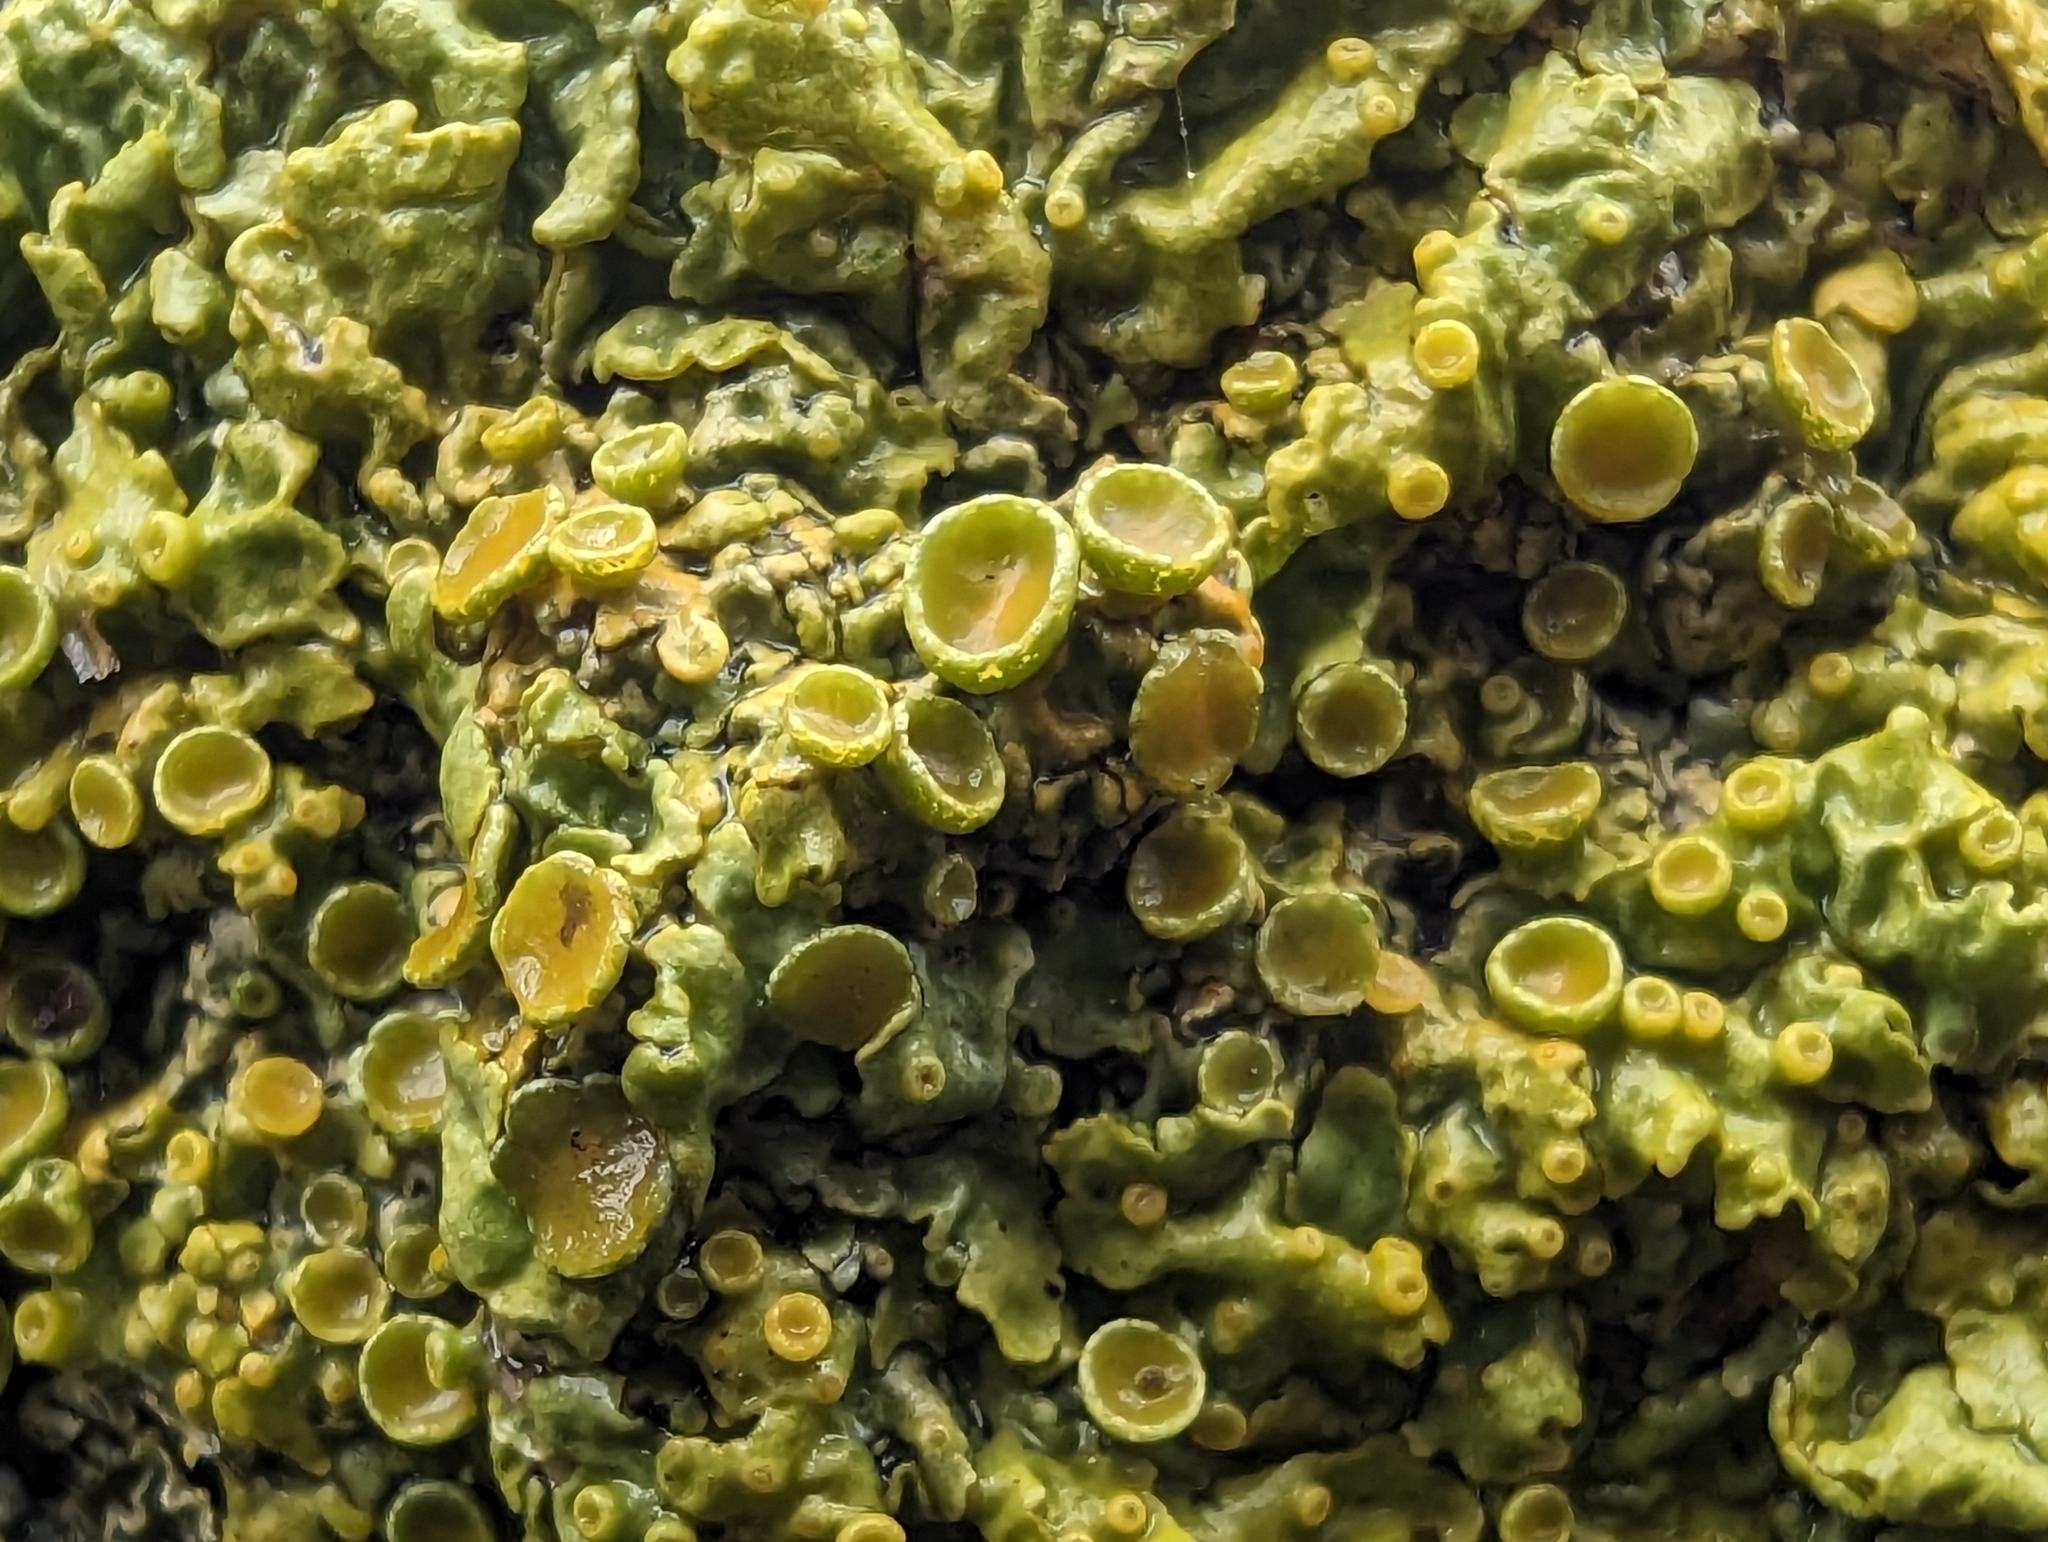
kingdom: Fungi
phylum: Ascomycota
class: Lecanoromycetes
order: Teloschistales
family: Teloschistaceae
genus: Xanthoria
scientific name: Xanthoria parietina
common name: Common orange lichen
